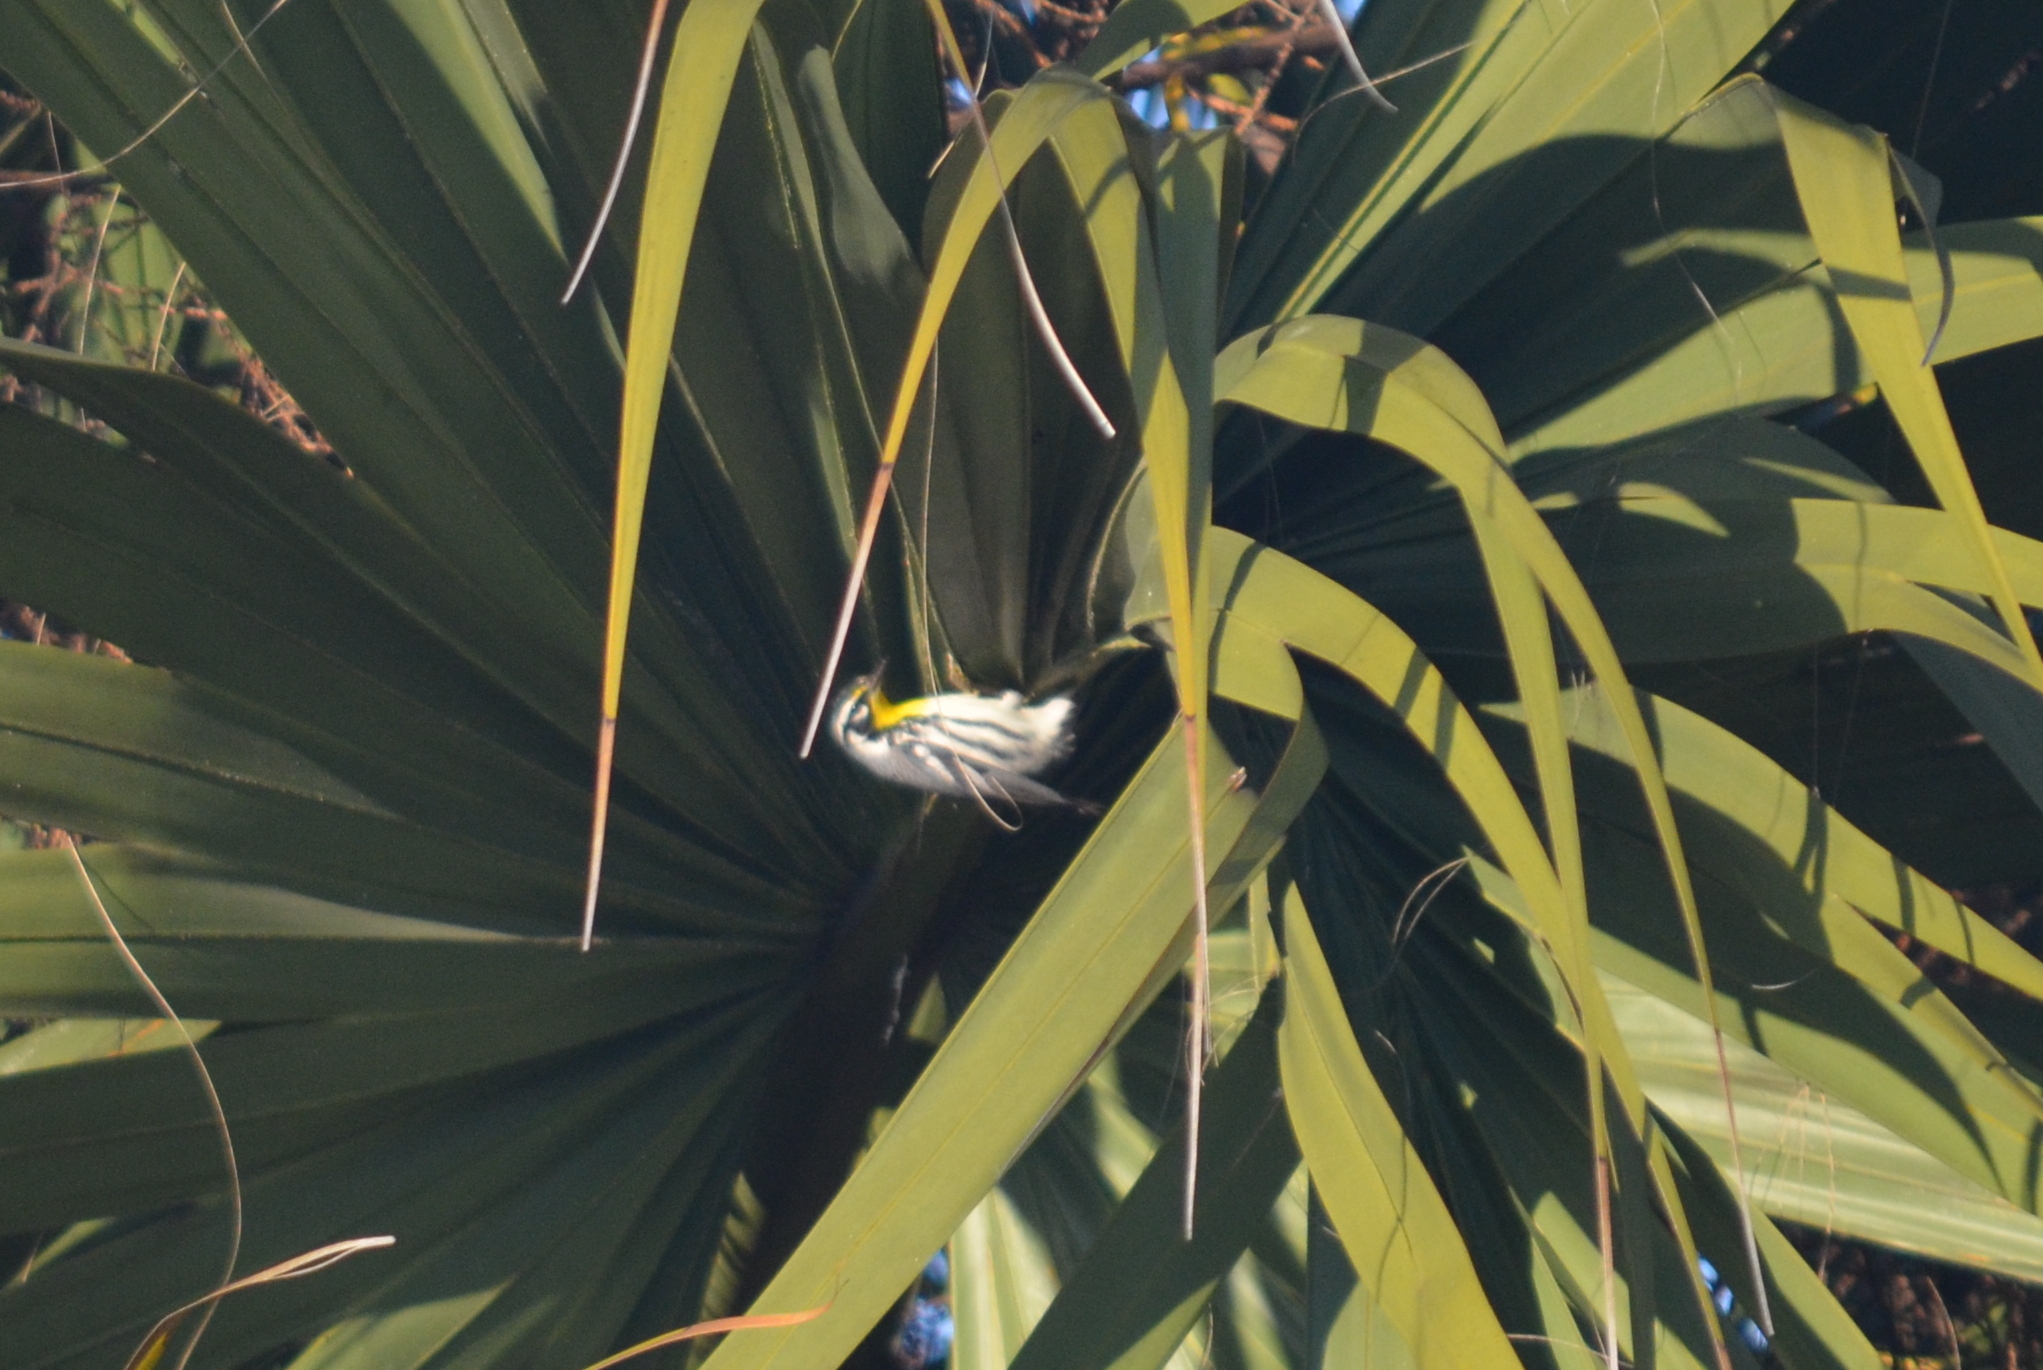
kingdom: Animalia
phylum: Chordata
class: Aves
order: Passeriformes
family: Parulidae
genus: Setophaga
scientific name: Setophaga dominica
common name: Yellow-throated warbler
